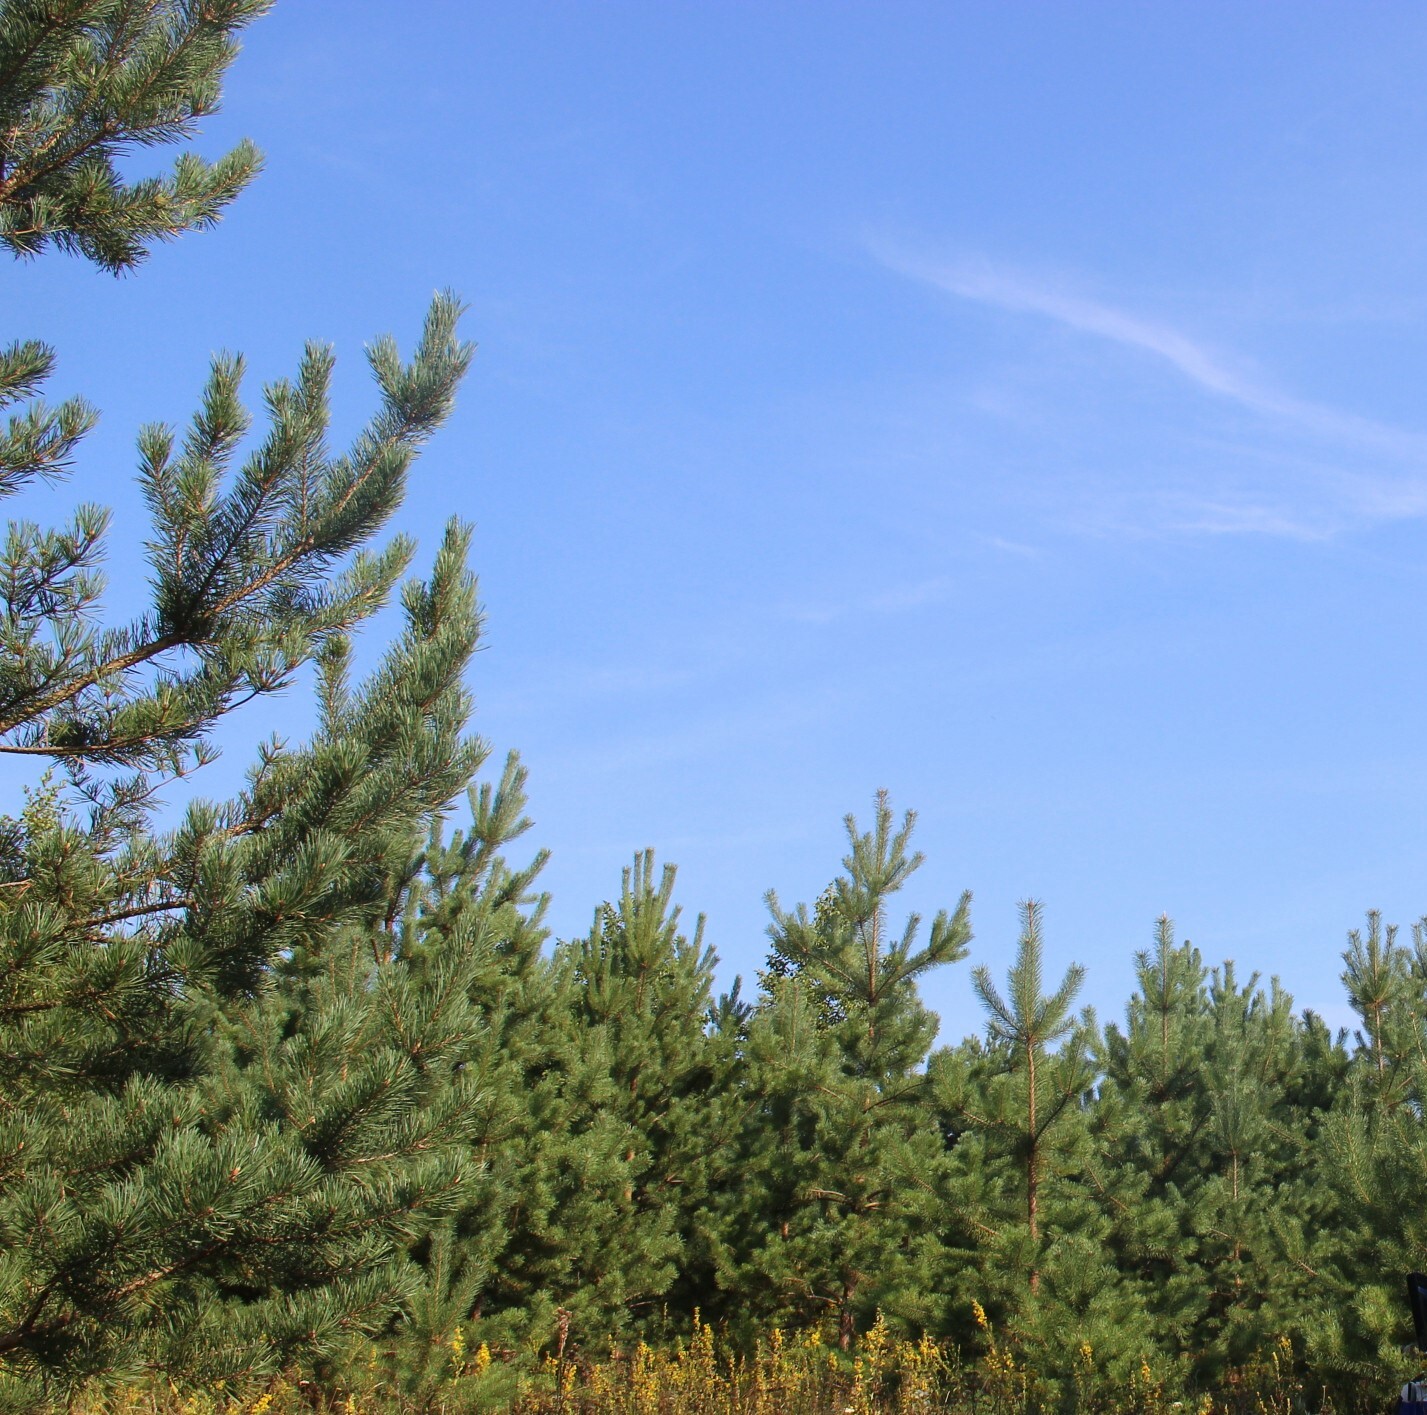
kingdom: Plantae
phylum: Tracheophyta
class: Pinopsida
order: Pinales
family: Pinaceae
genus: Pinus
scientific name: Pinus sylvestris
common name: Scots pine
